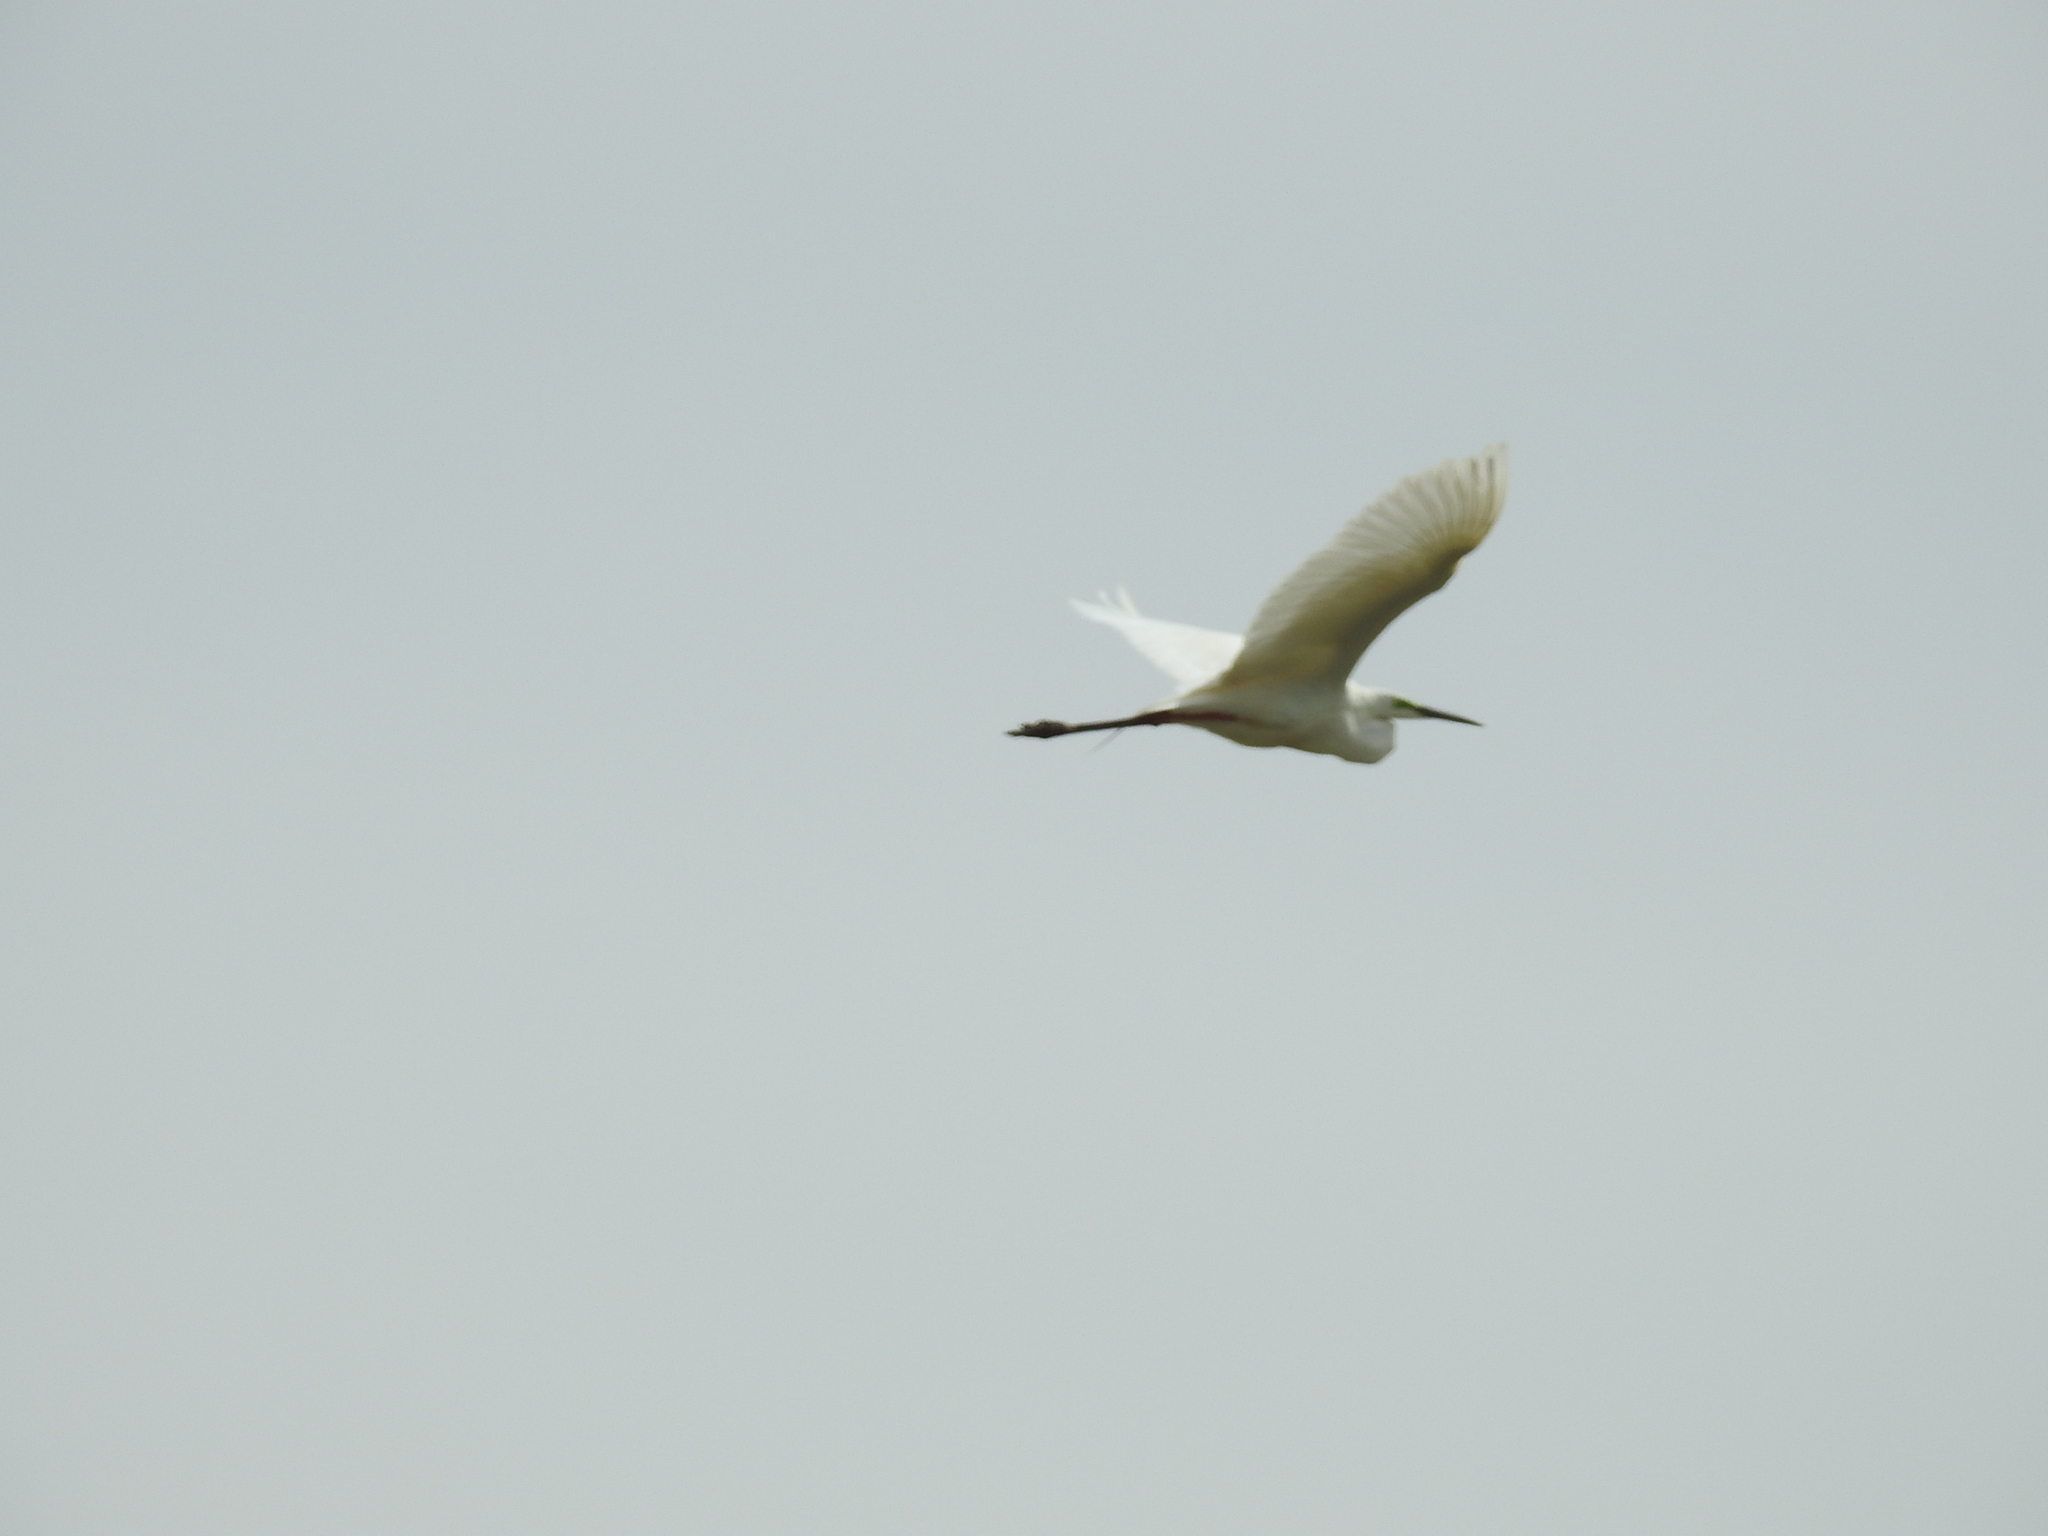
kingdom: Animalia
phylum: Chordata
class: Aves
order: Pelecaniformes
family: Ardeidae
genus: Ardea
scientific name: Ardea alba
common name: Great egret
